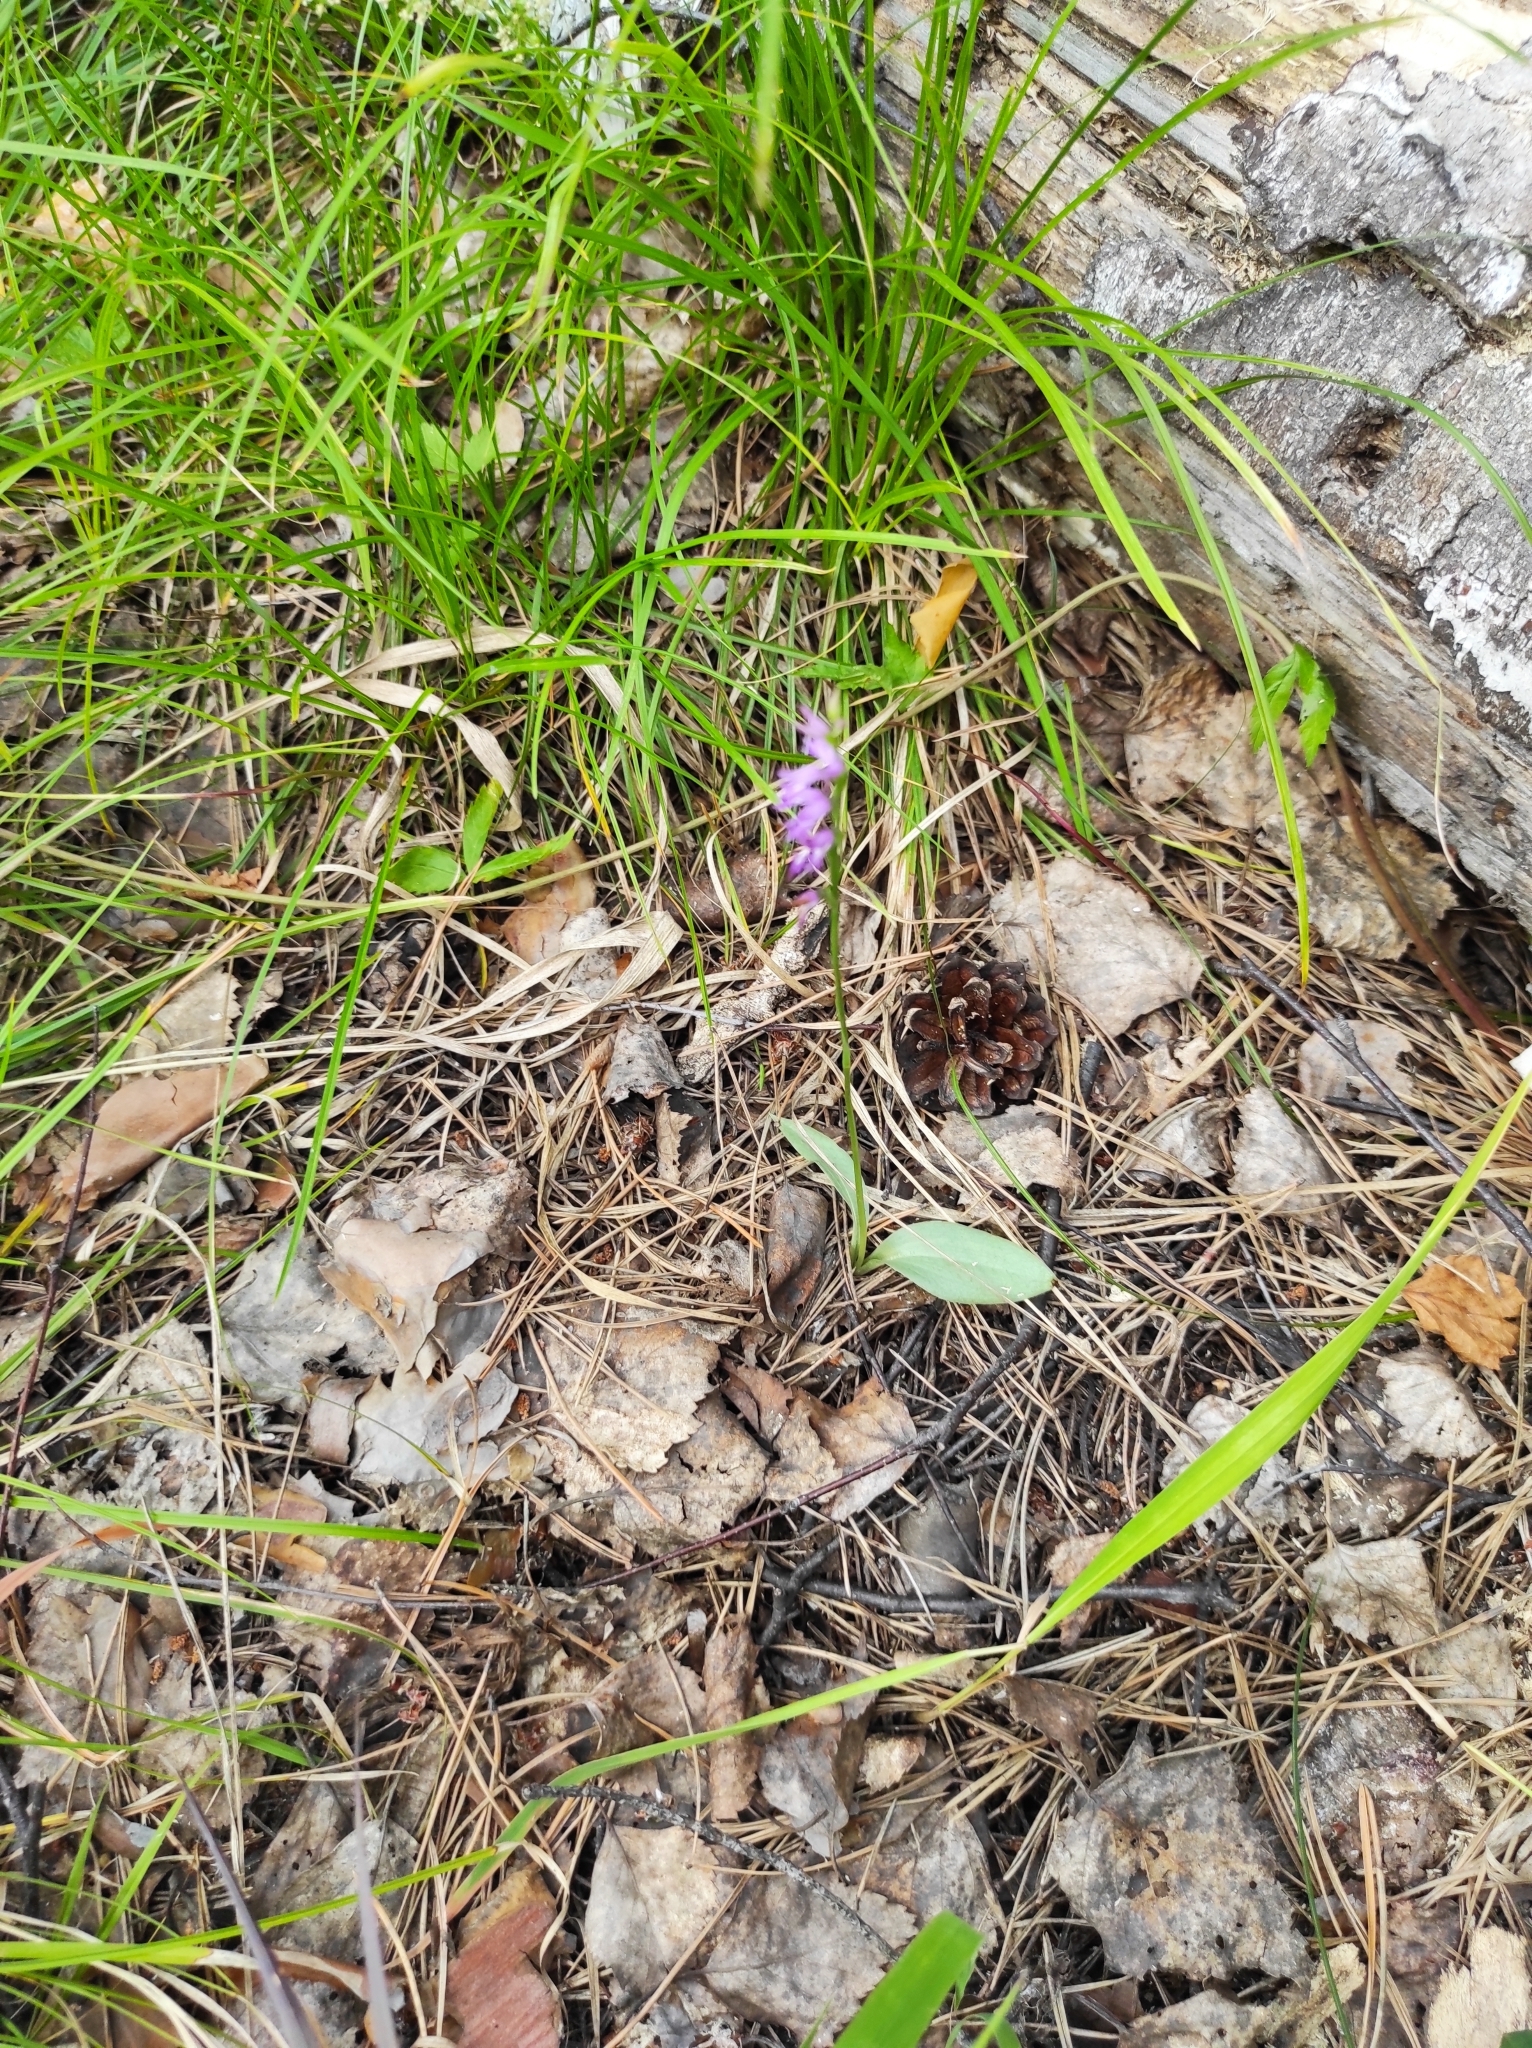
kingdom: Plantae
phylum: Tracheophyta
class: Liliopsida
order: Asparagales
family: Orchidaceae
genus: Hemipilia
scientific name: Hemipilia cucullata
